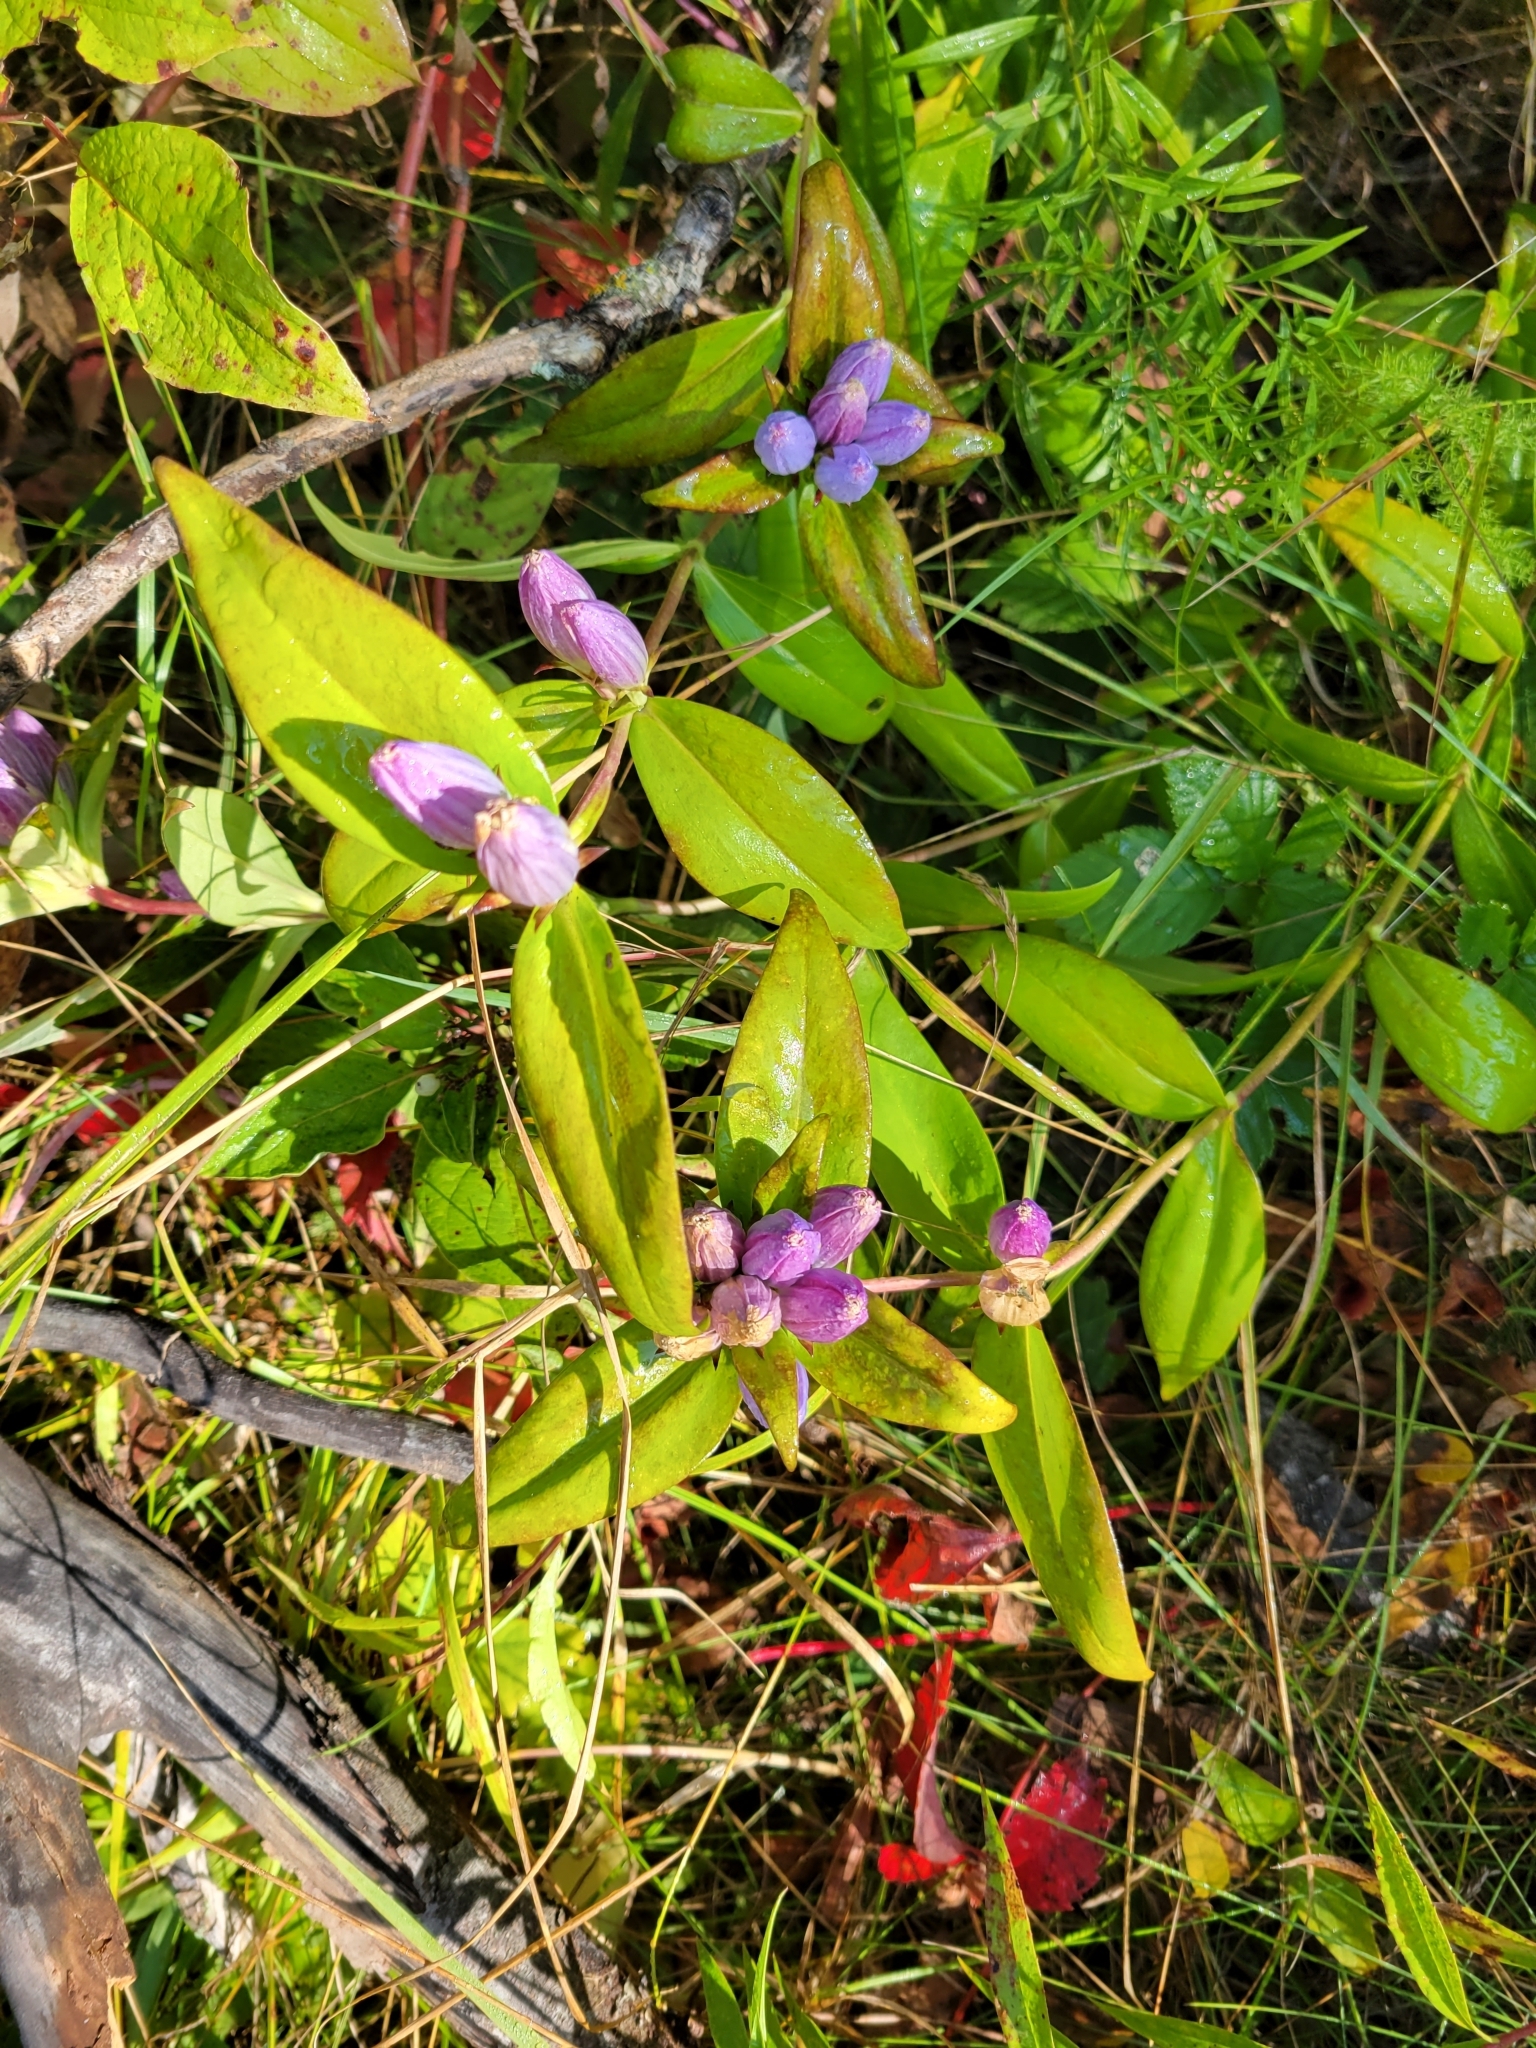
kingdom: Plantae
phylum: Tracheophyta
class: Magnoliopsida
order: Gentianales
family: Gentianaceae
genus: Gentiana
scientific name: Gentiana andrewsii
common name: Bottle gentian
